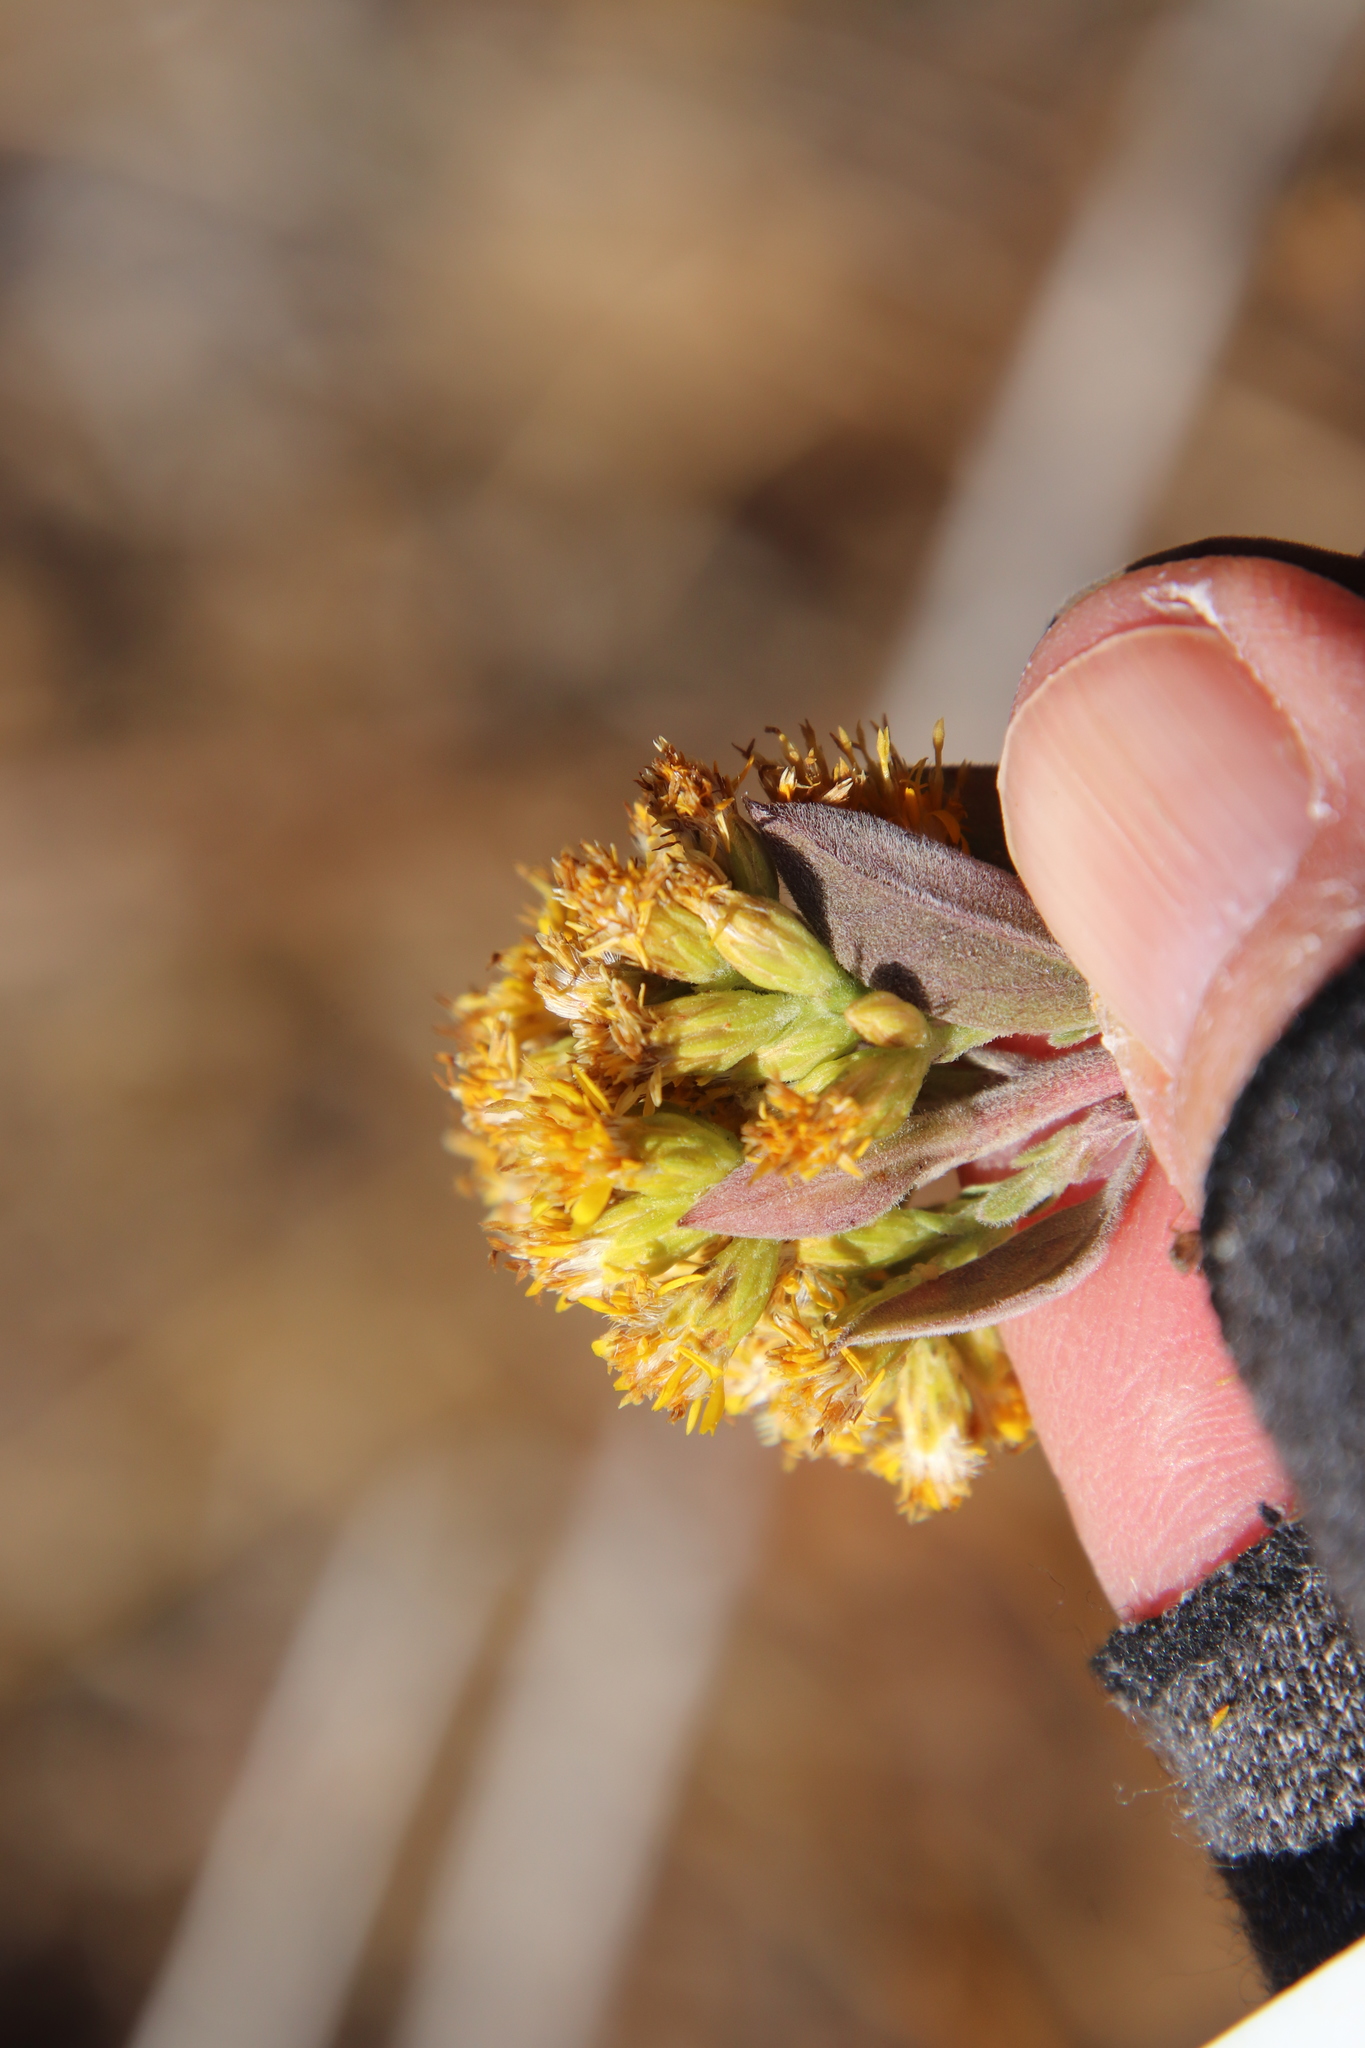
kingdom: Plantae
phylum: Tracheophyta
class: Magnoliopsida
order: Asterales
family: Asteraceae
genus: Solidago
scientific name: Solidago californica
